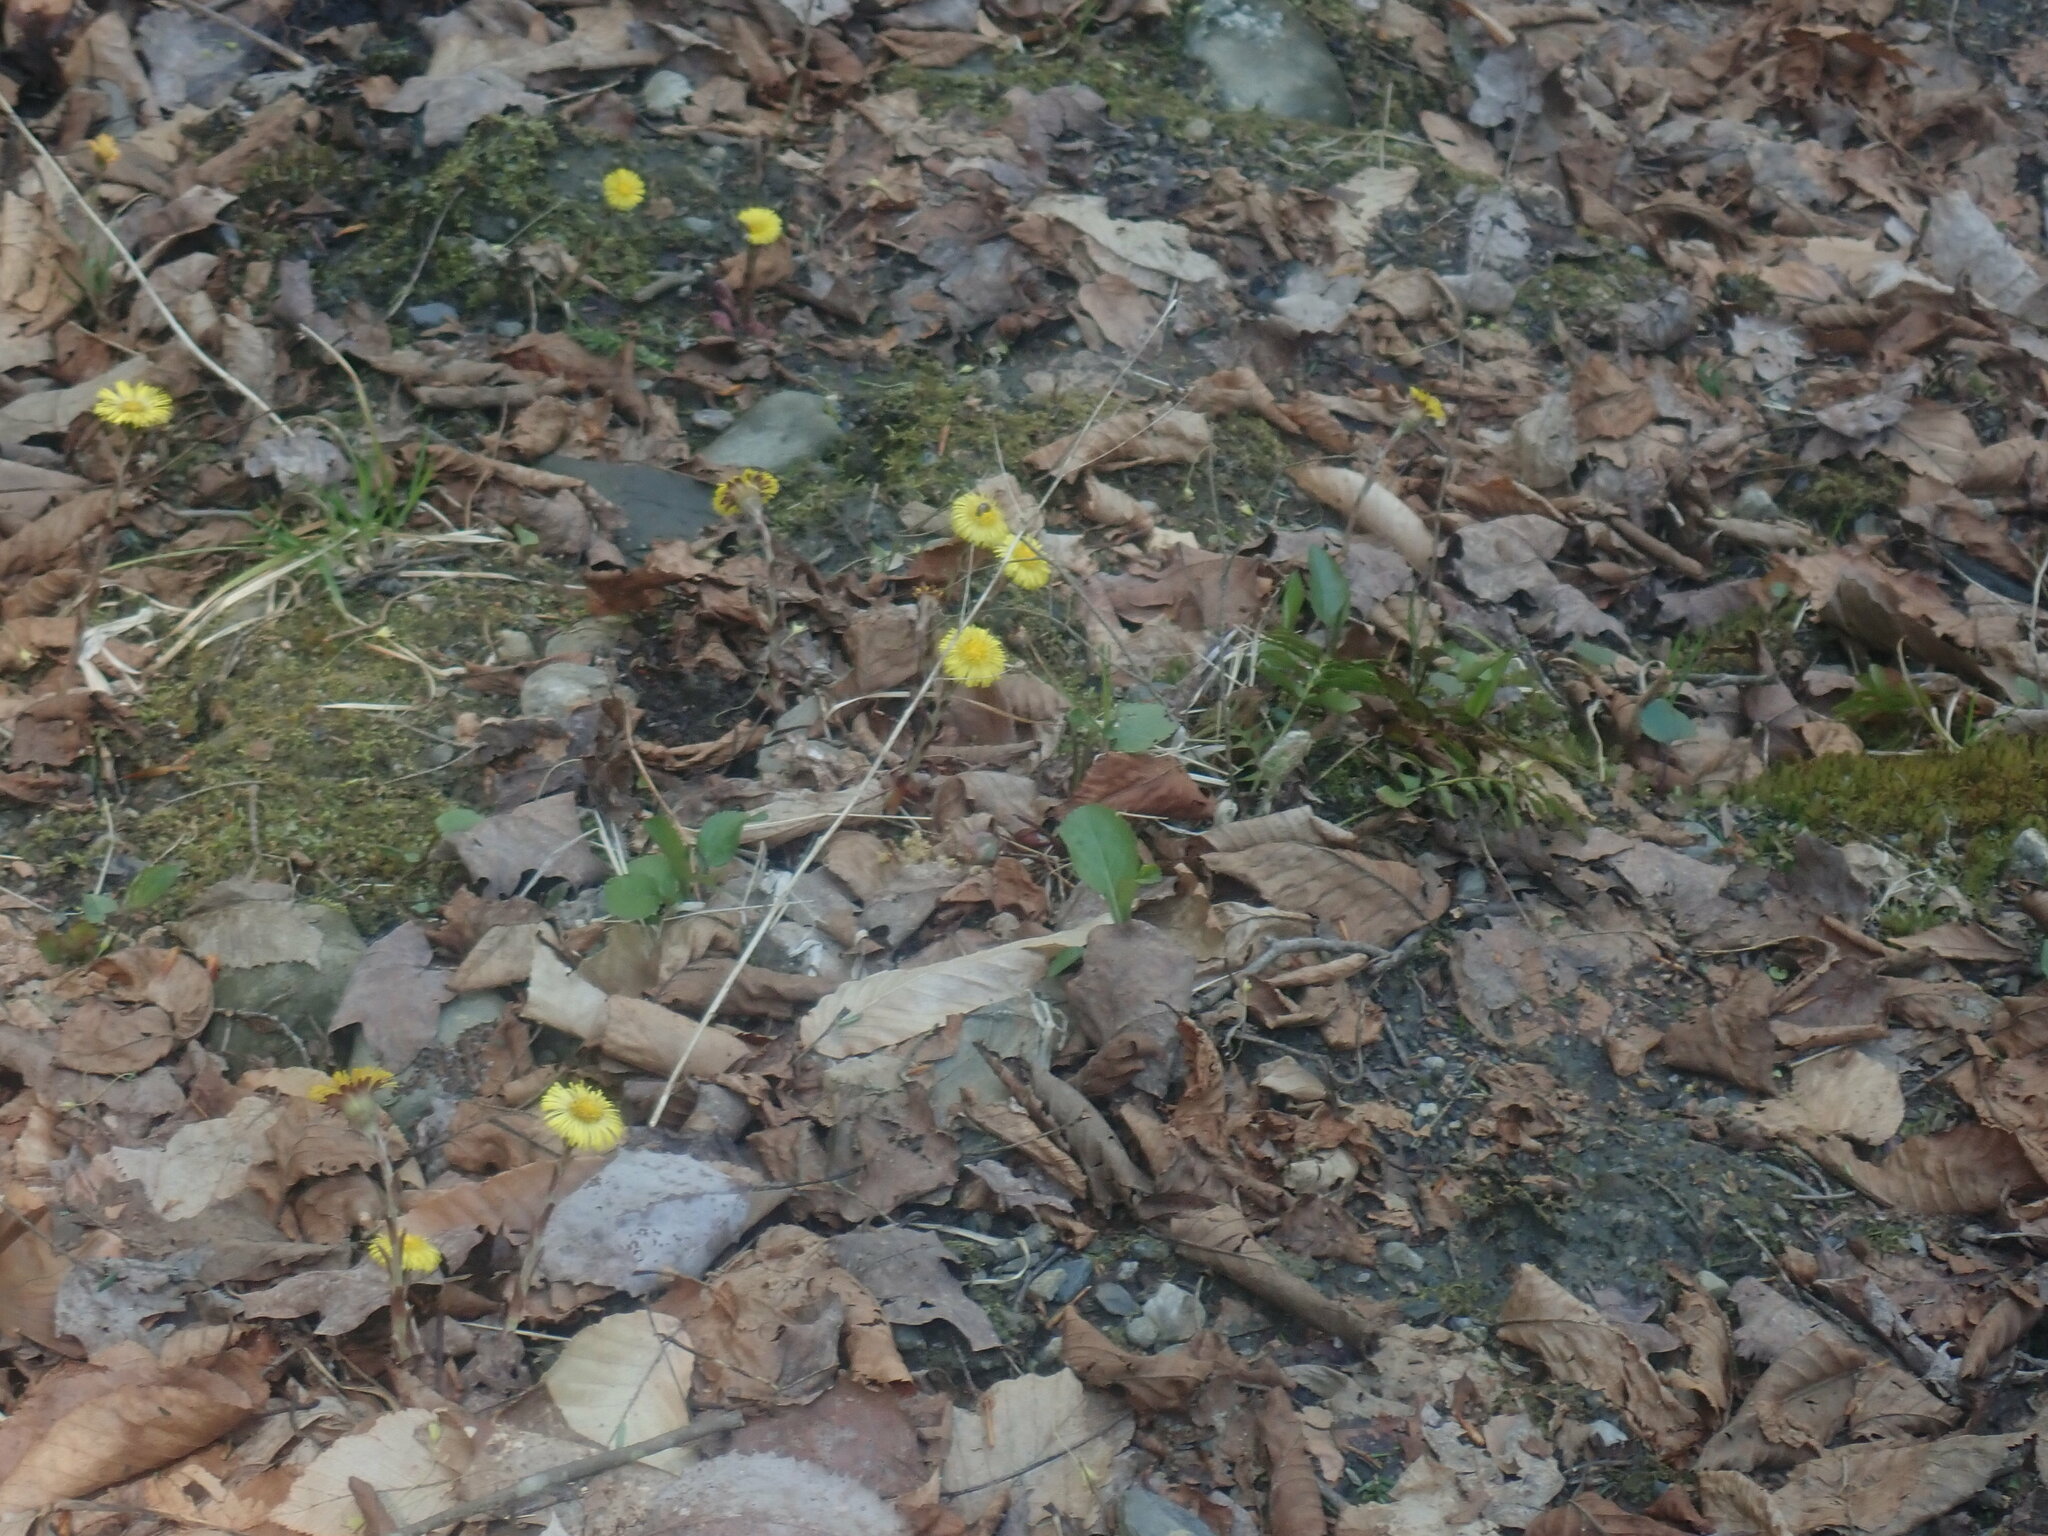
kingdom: Plantae
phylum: Tracheophyta
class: Magnoliopsida
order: Asterales
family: Asteraceae
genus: Tussilago
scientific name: Tussilago farfara
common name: Coltsfoot
